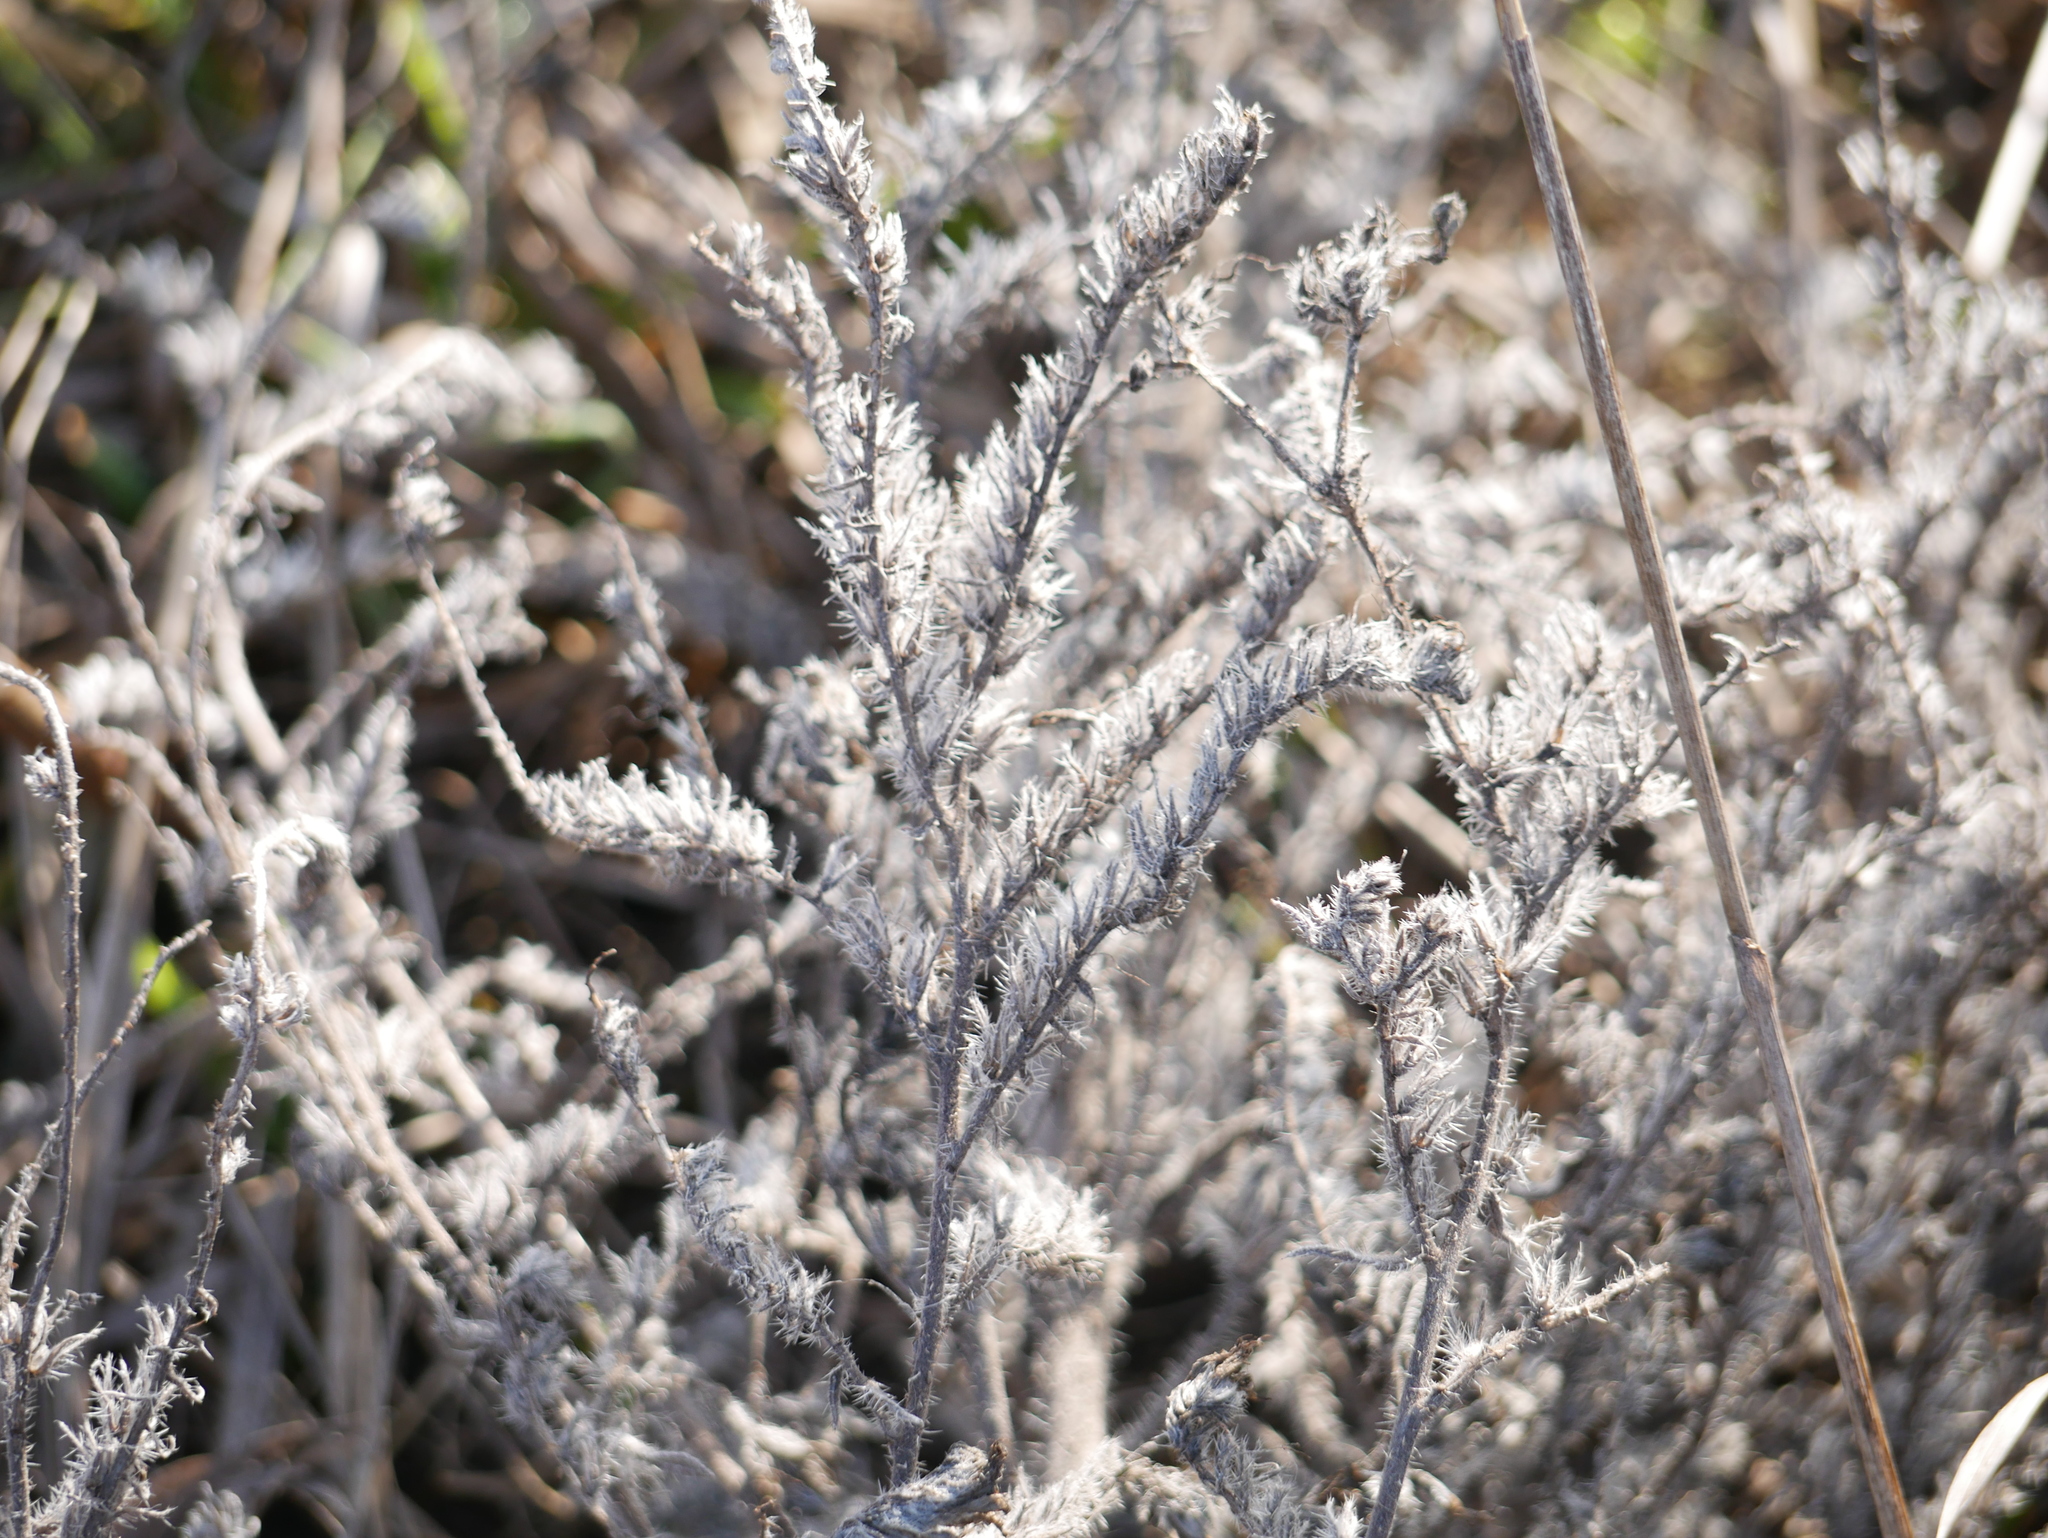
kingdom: Plantae
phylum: Tracheophyta
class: Magnoliopsida
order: Boraginales
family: Boraginaceae
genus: Echium
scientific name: Echium vulgare
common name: Common viper's bugloss
